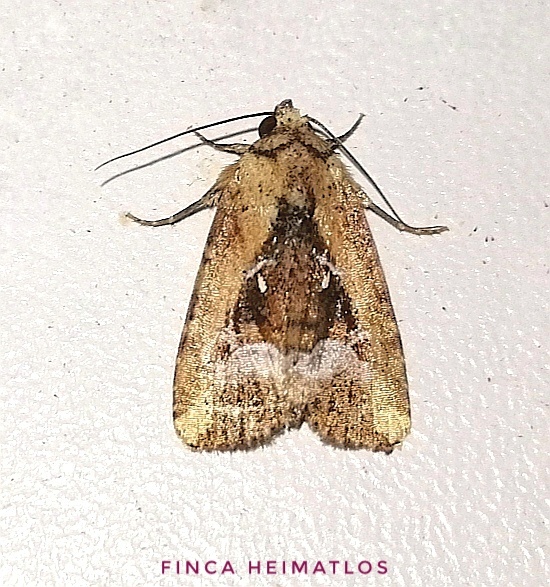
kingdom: Animalia
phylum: Arthropoda
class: Insecta
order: Lepidoptera
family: Noctuidae
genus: Elaphria
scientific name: Elaphria subobliqua
